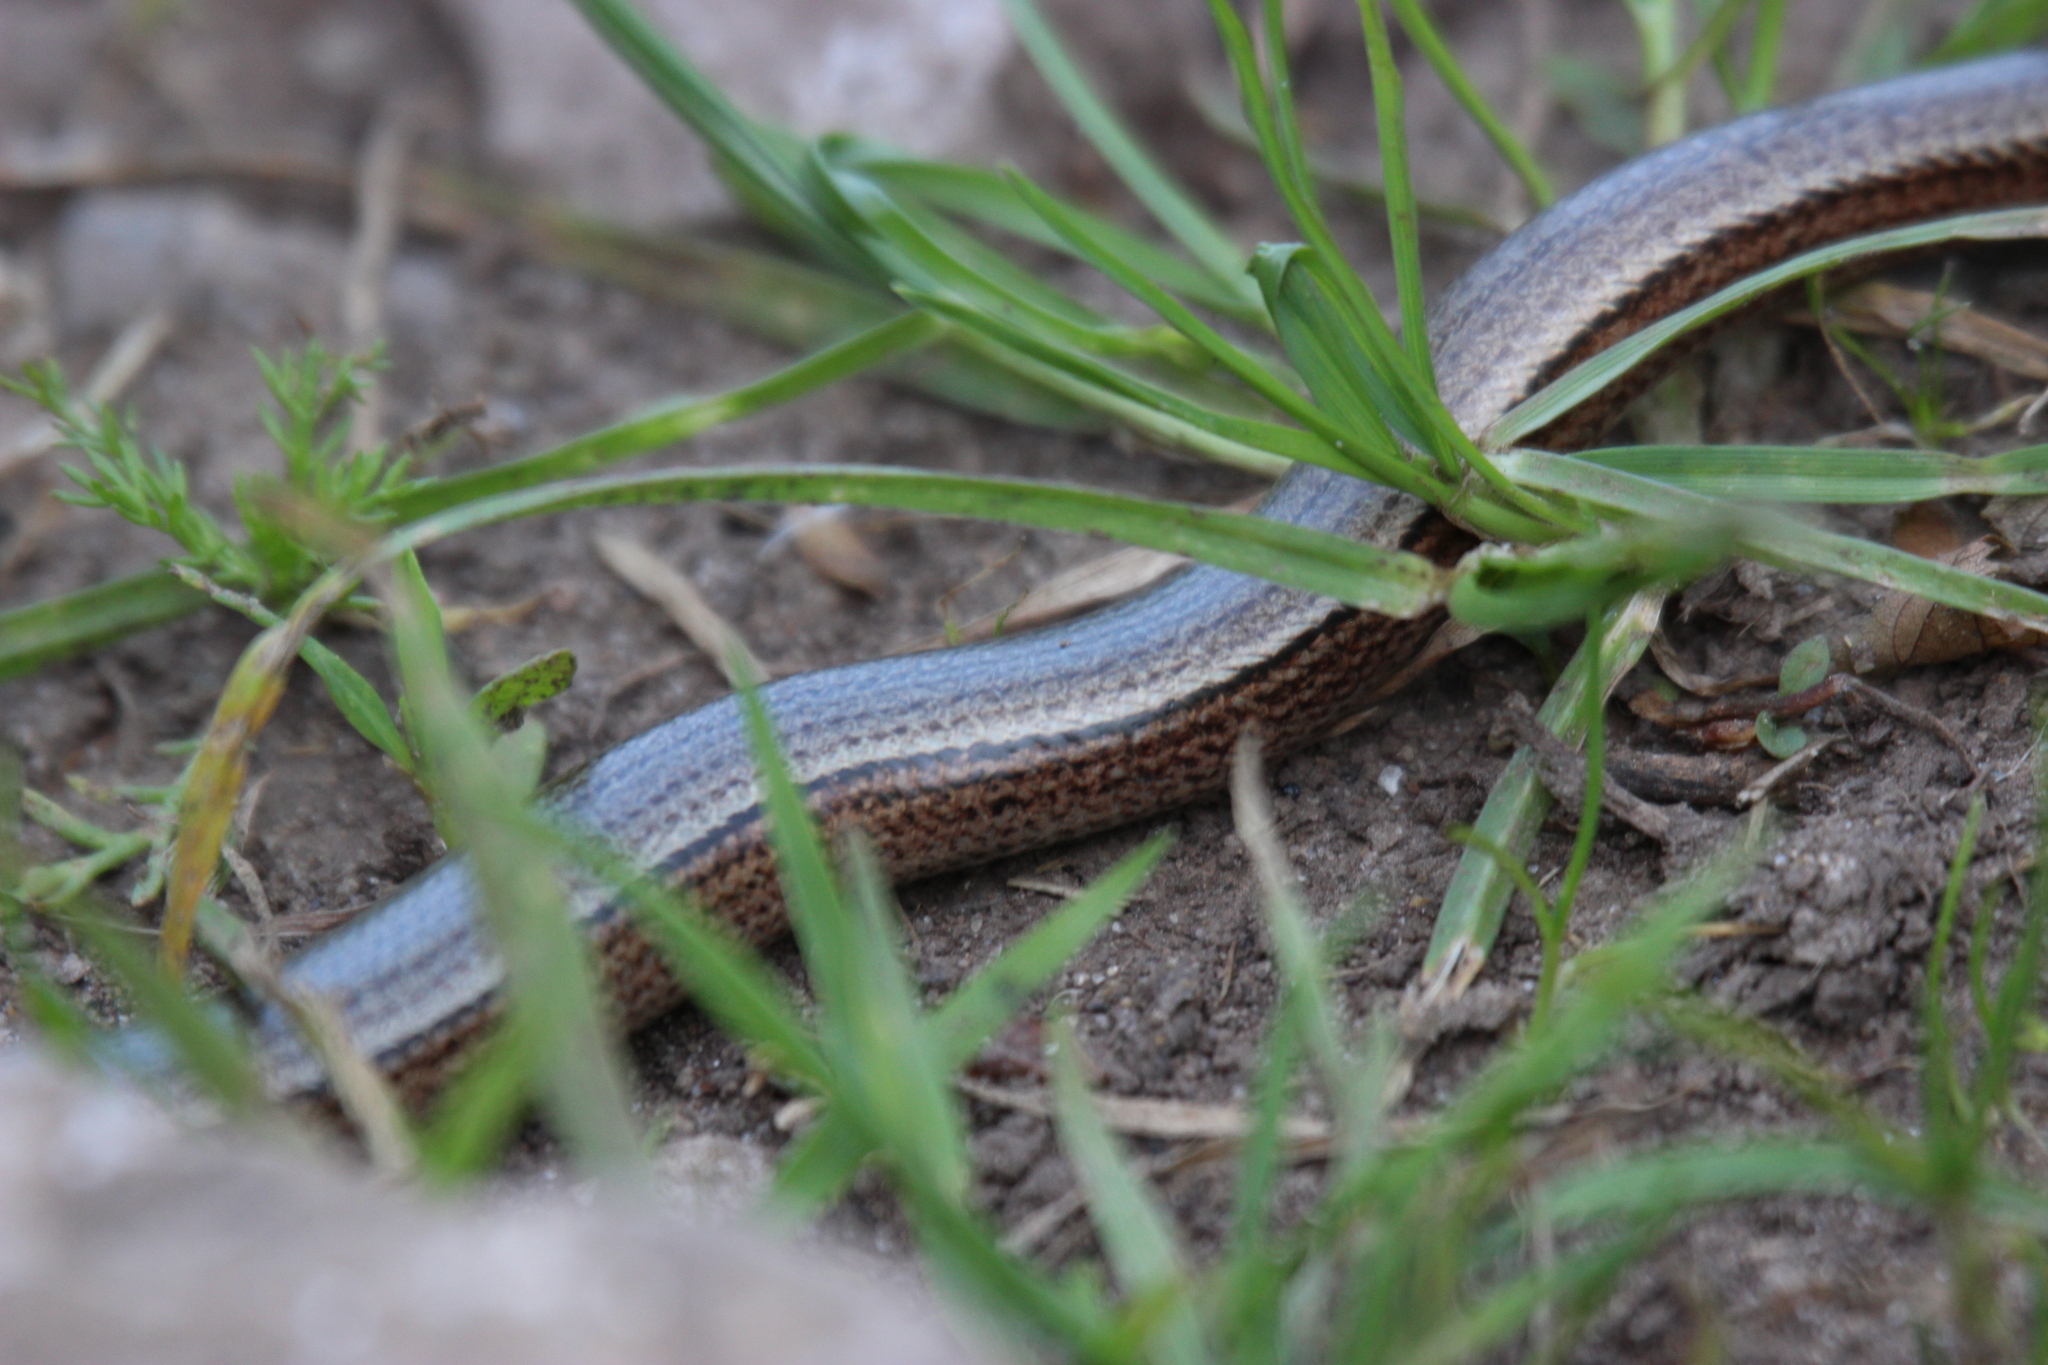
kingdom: Animalia
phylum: Chordata
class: Squamata
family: Anguidae
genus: Anguis
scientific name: Anguis fragilis
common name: Slow worm
